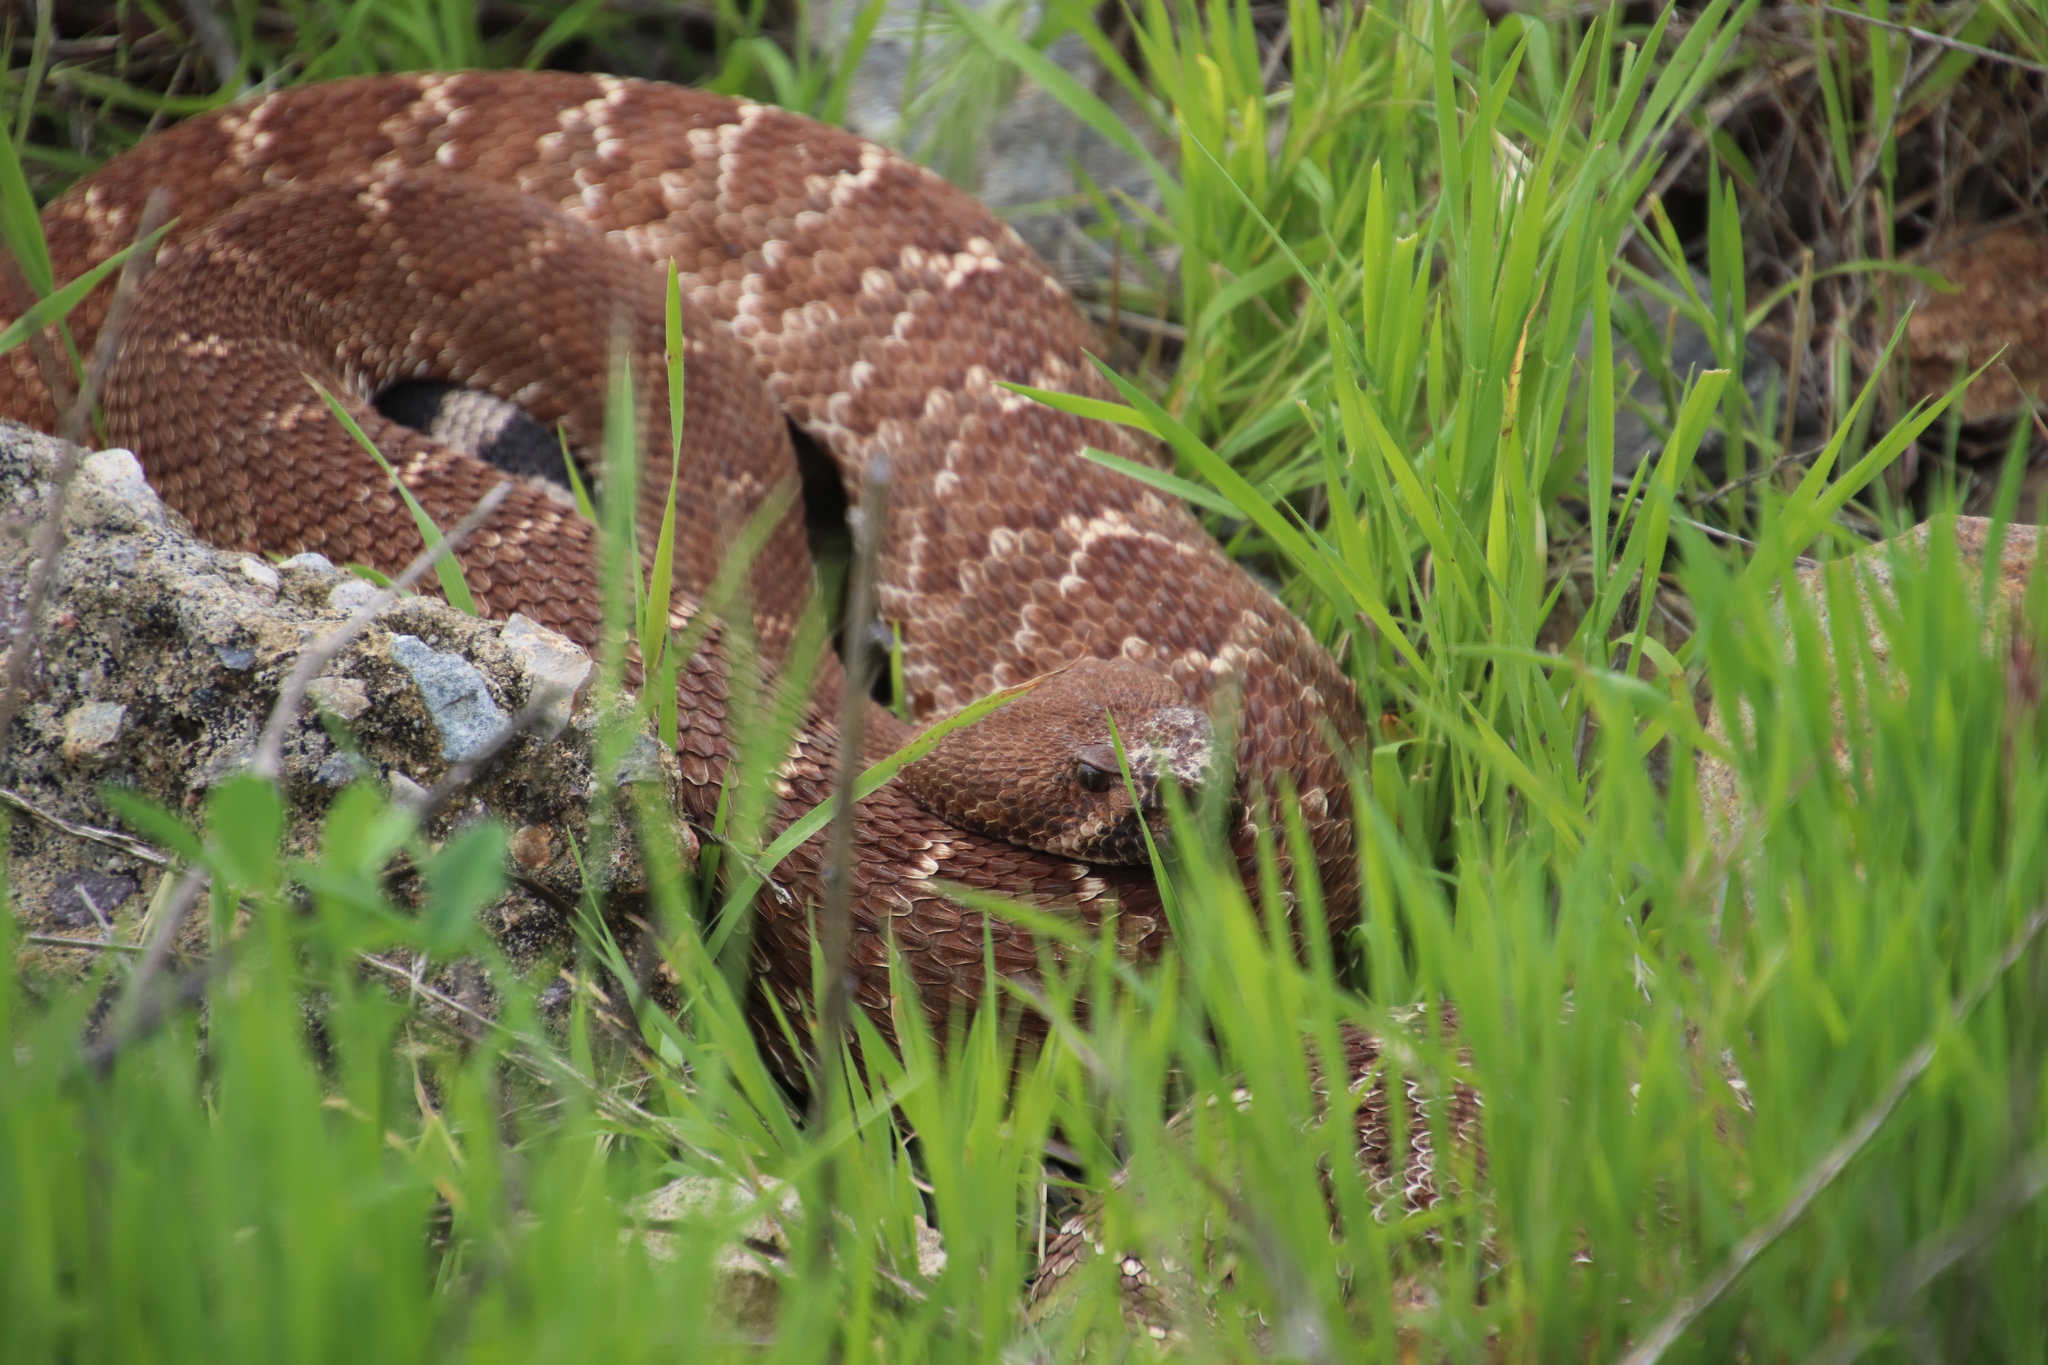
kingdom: Animalia
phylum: Chordata
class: Squamata
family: Viperidae
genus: Crotalus
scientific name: Crotalus ruber
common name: Red diamond rattlesnake
